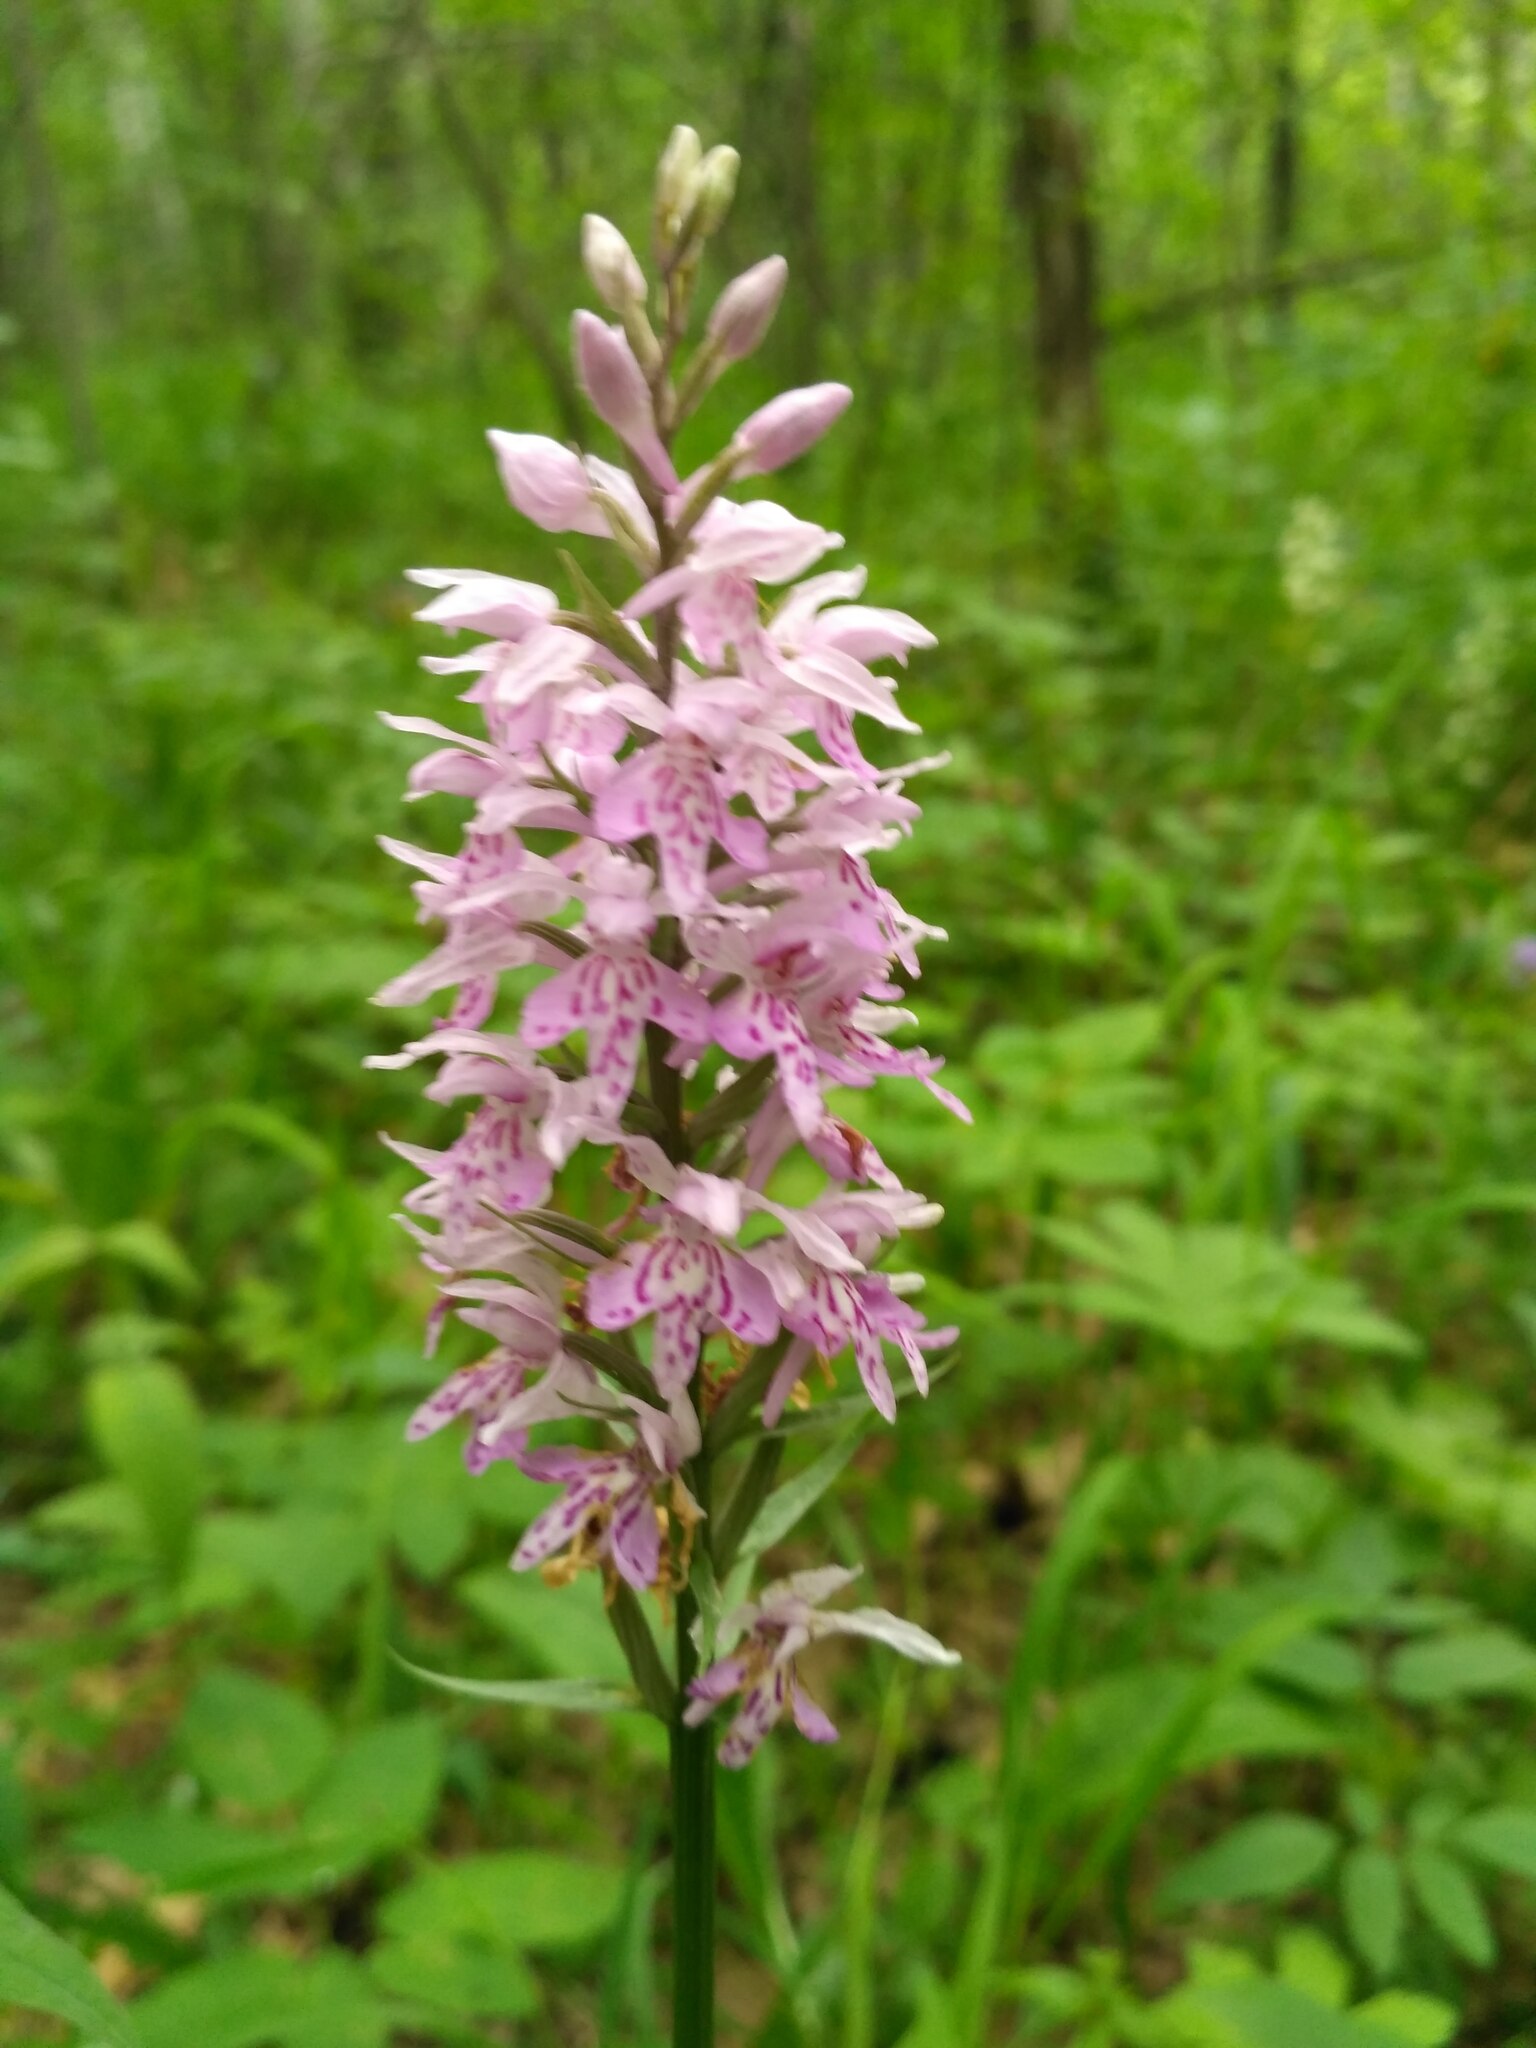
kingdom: Plantae
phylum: Tracheophyta
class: Liliopsida
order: Asparagales
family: Orchidaceae
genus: Dactylorhiza
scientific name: Dactylorhiza maculata
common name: Heath spotted-orchid
